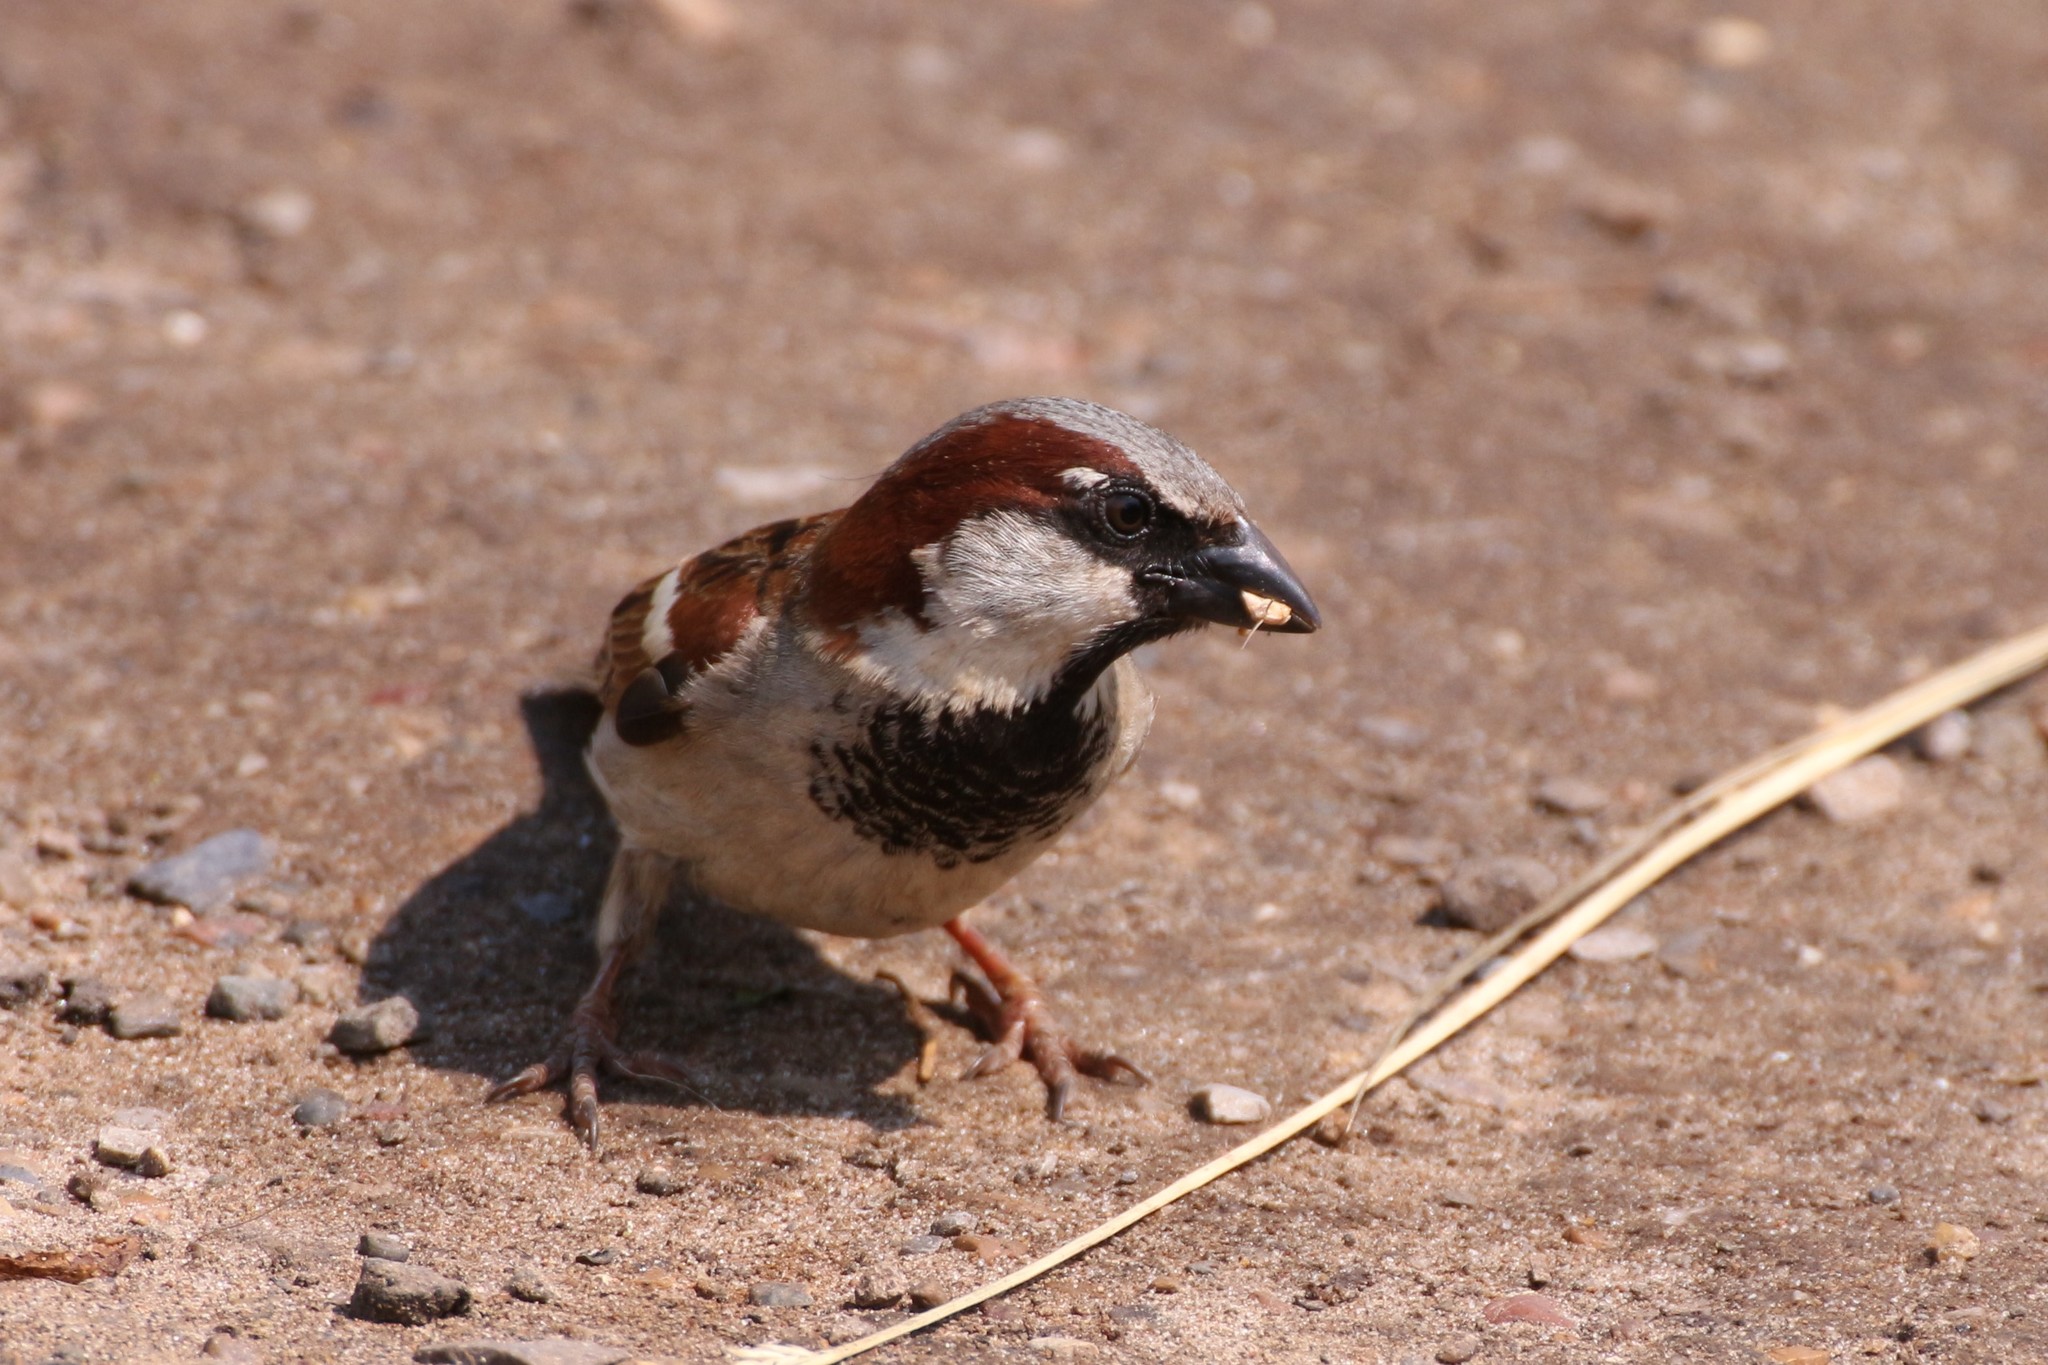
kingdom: Animalia
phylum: Chordata
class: Aves
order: Passeriformes
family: Passeridae
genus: Passer
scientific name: Passer domesticus
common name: House sparrow
